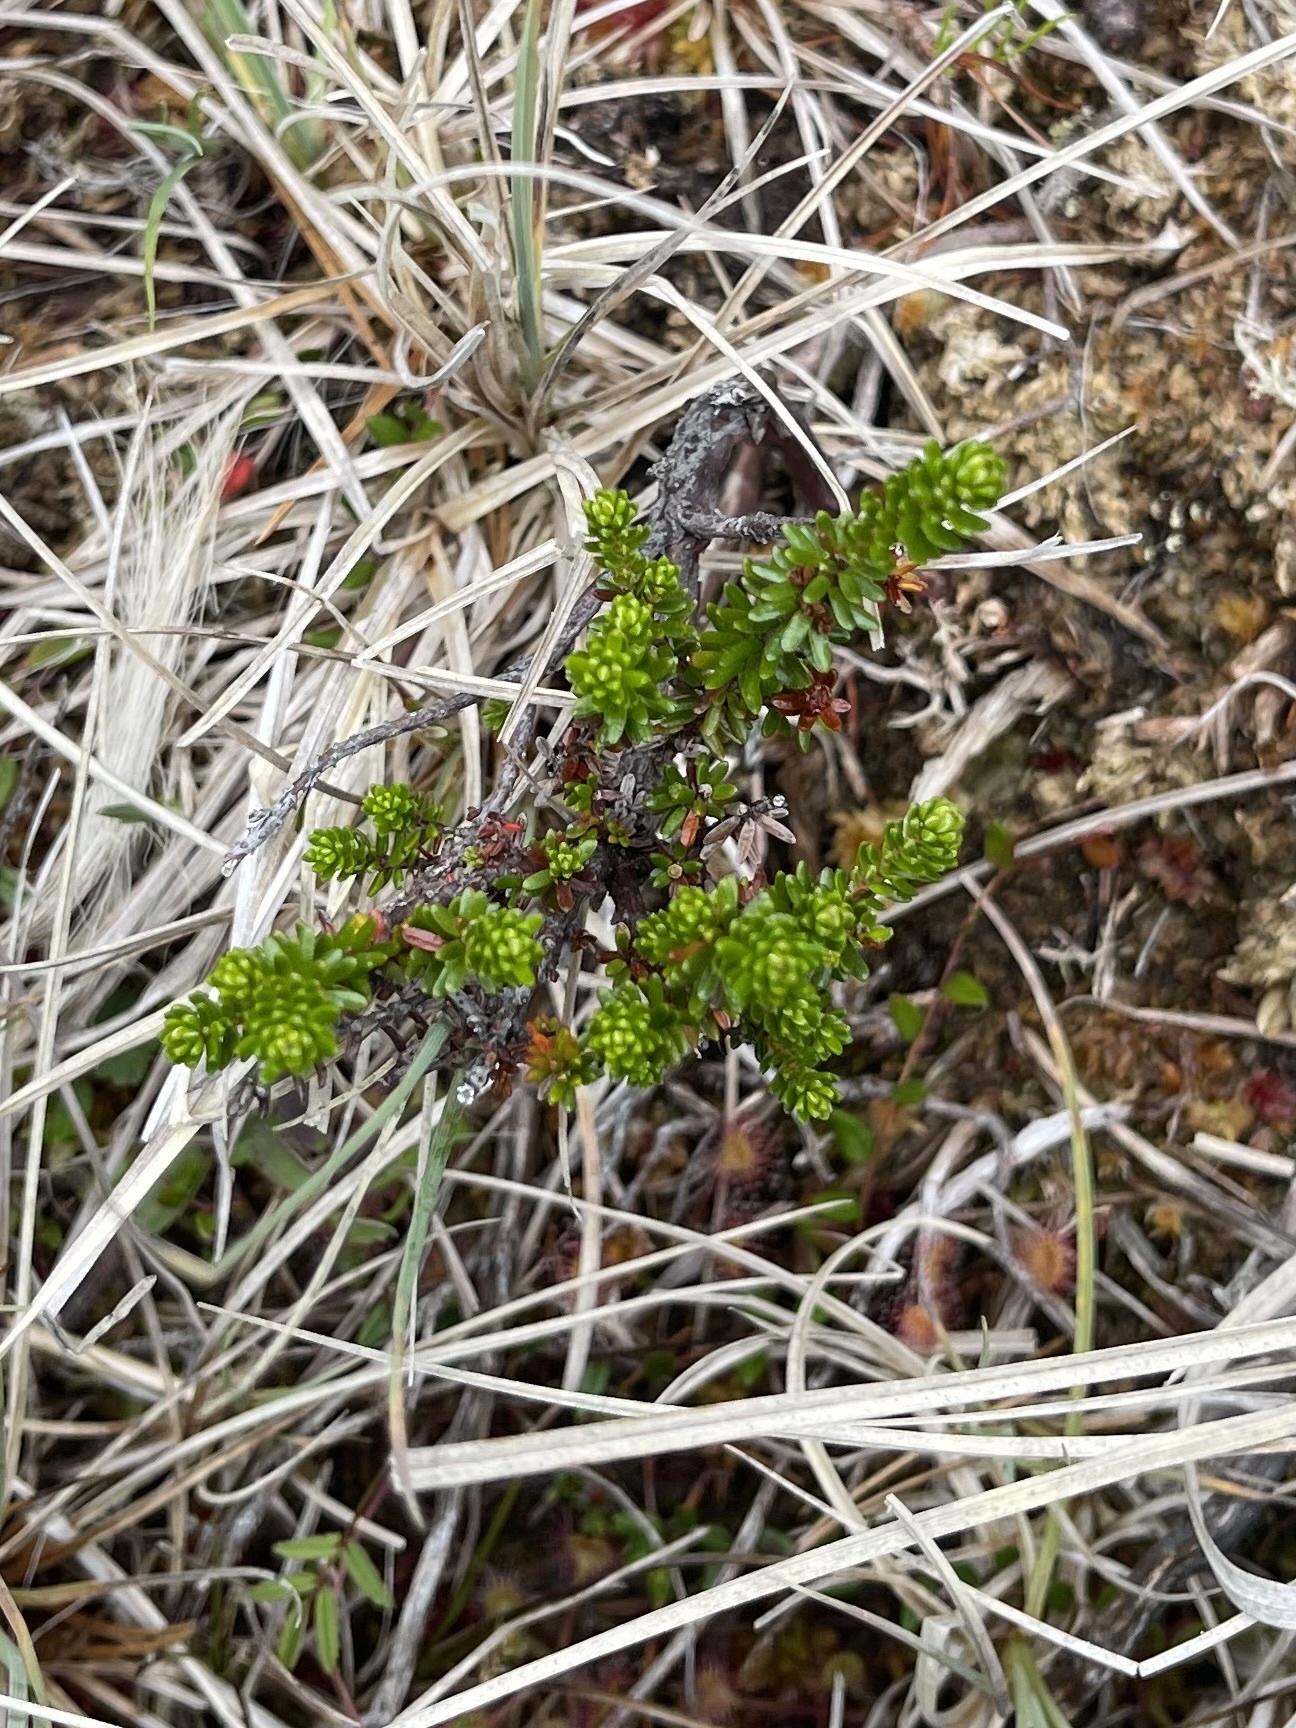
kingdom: Plantae
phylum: Tracheophyta
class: Magnoliopsida
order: Ericales
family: Ericaceae
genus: Empetrum
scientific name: Empetrum nigrum
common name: Black crowberry
